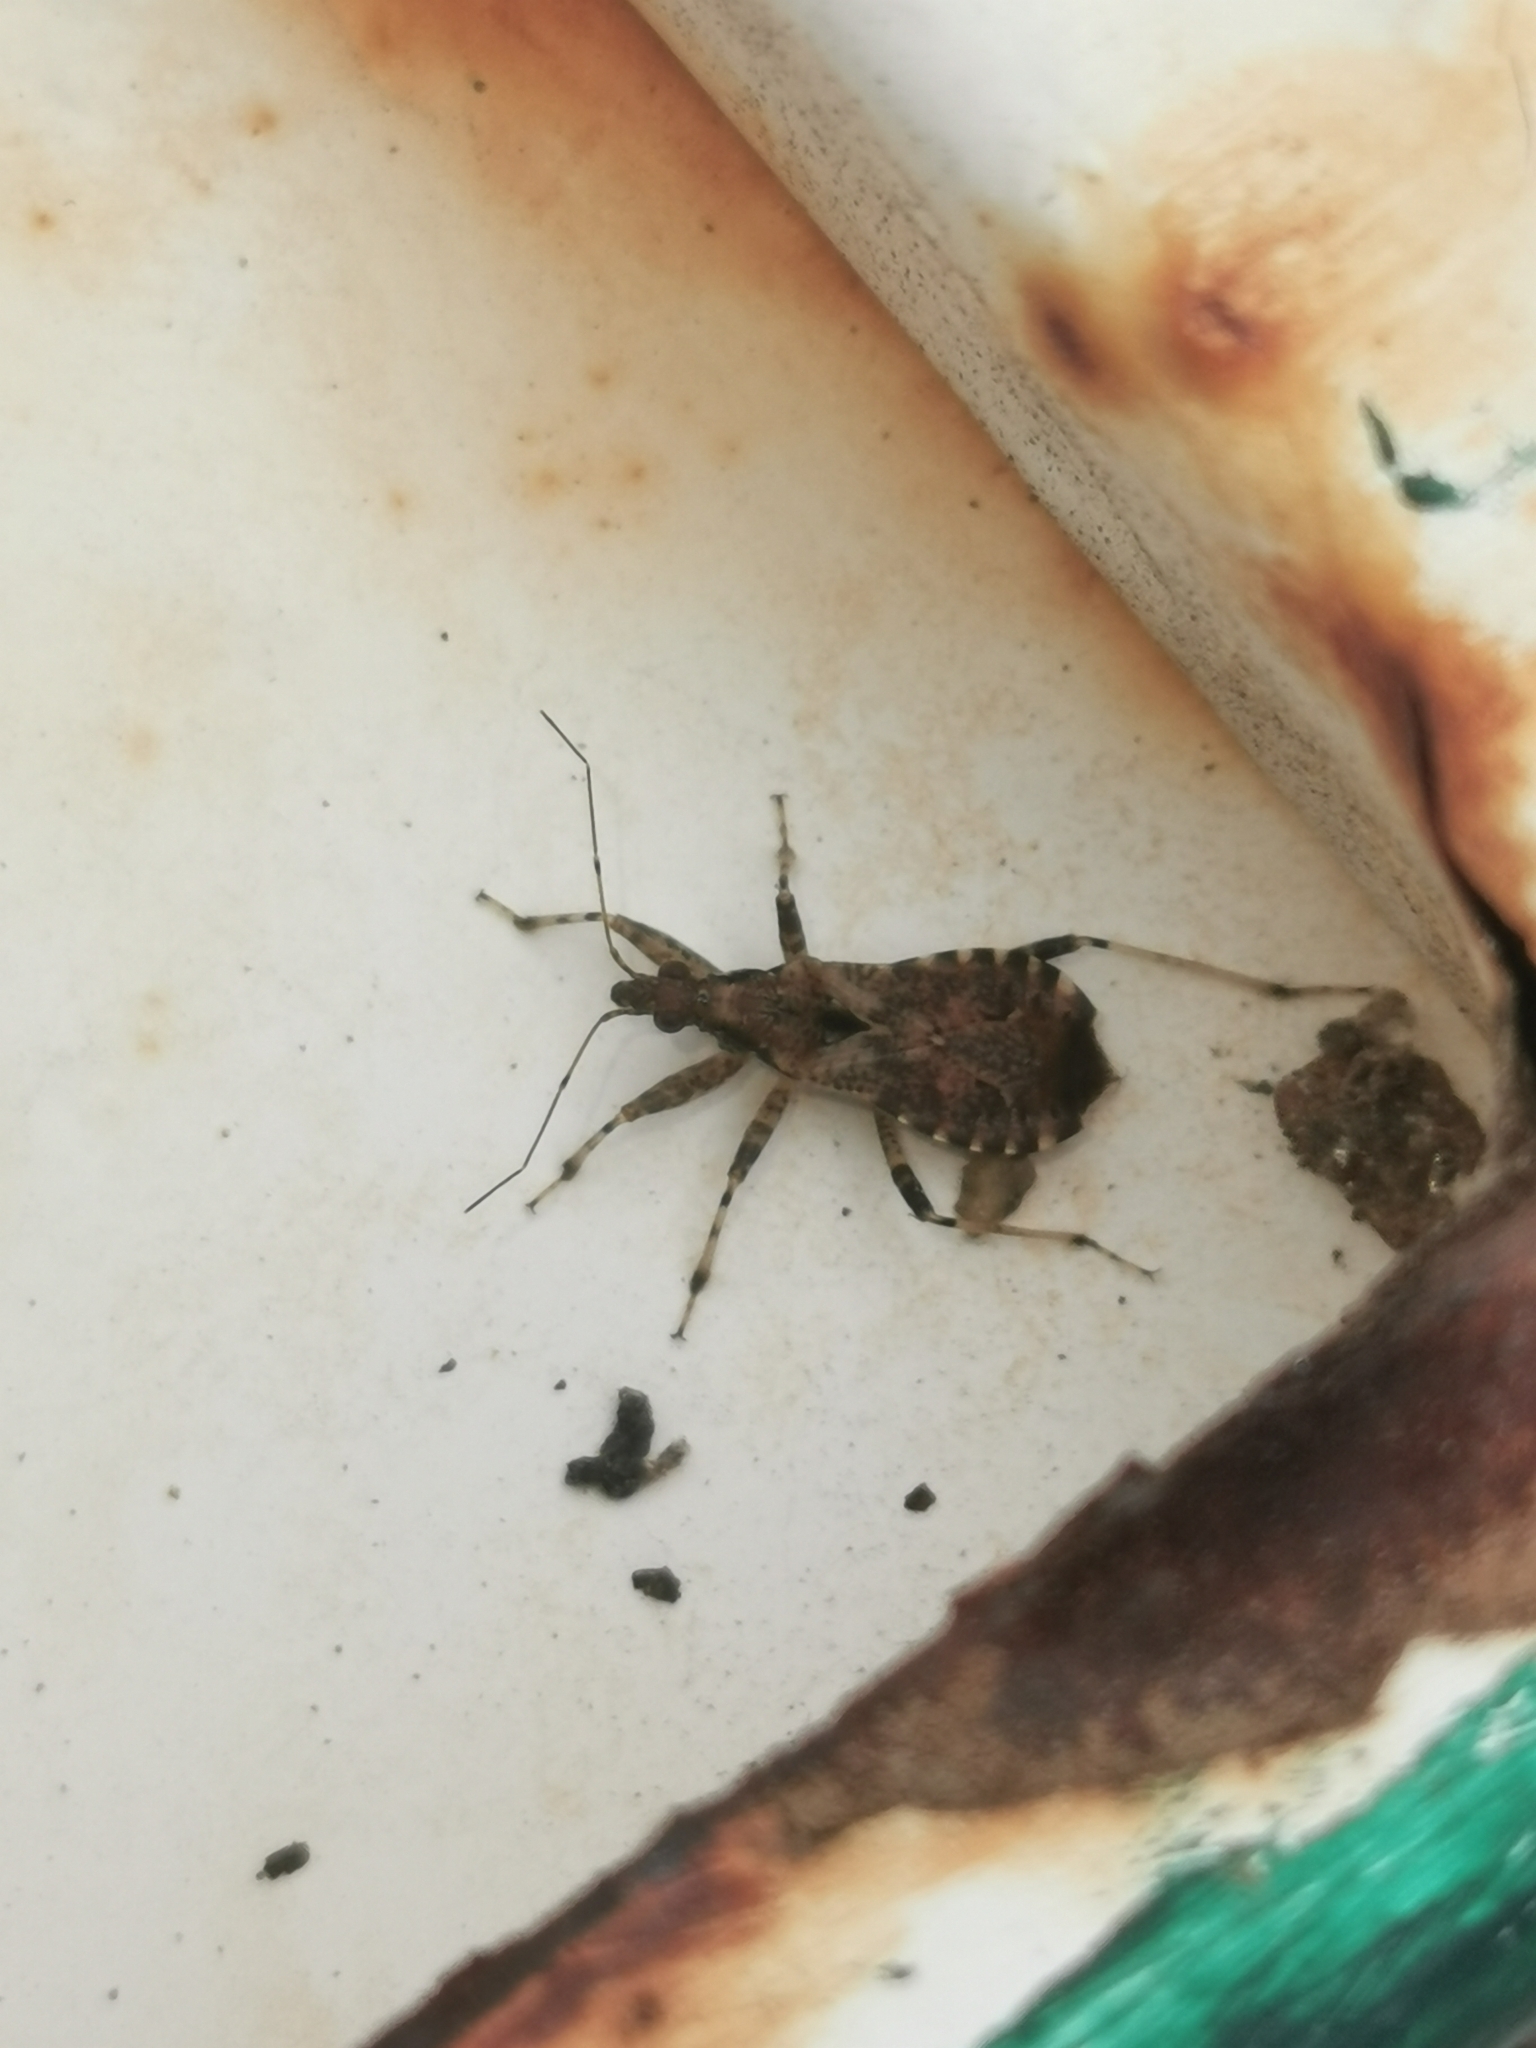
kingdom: Animalia
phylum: Arthropoda
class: Insecta
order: Hemiptera
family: Nabidae
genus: Himacerus
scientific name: Himacerus mirmicoides
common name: Ant damsel bug
